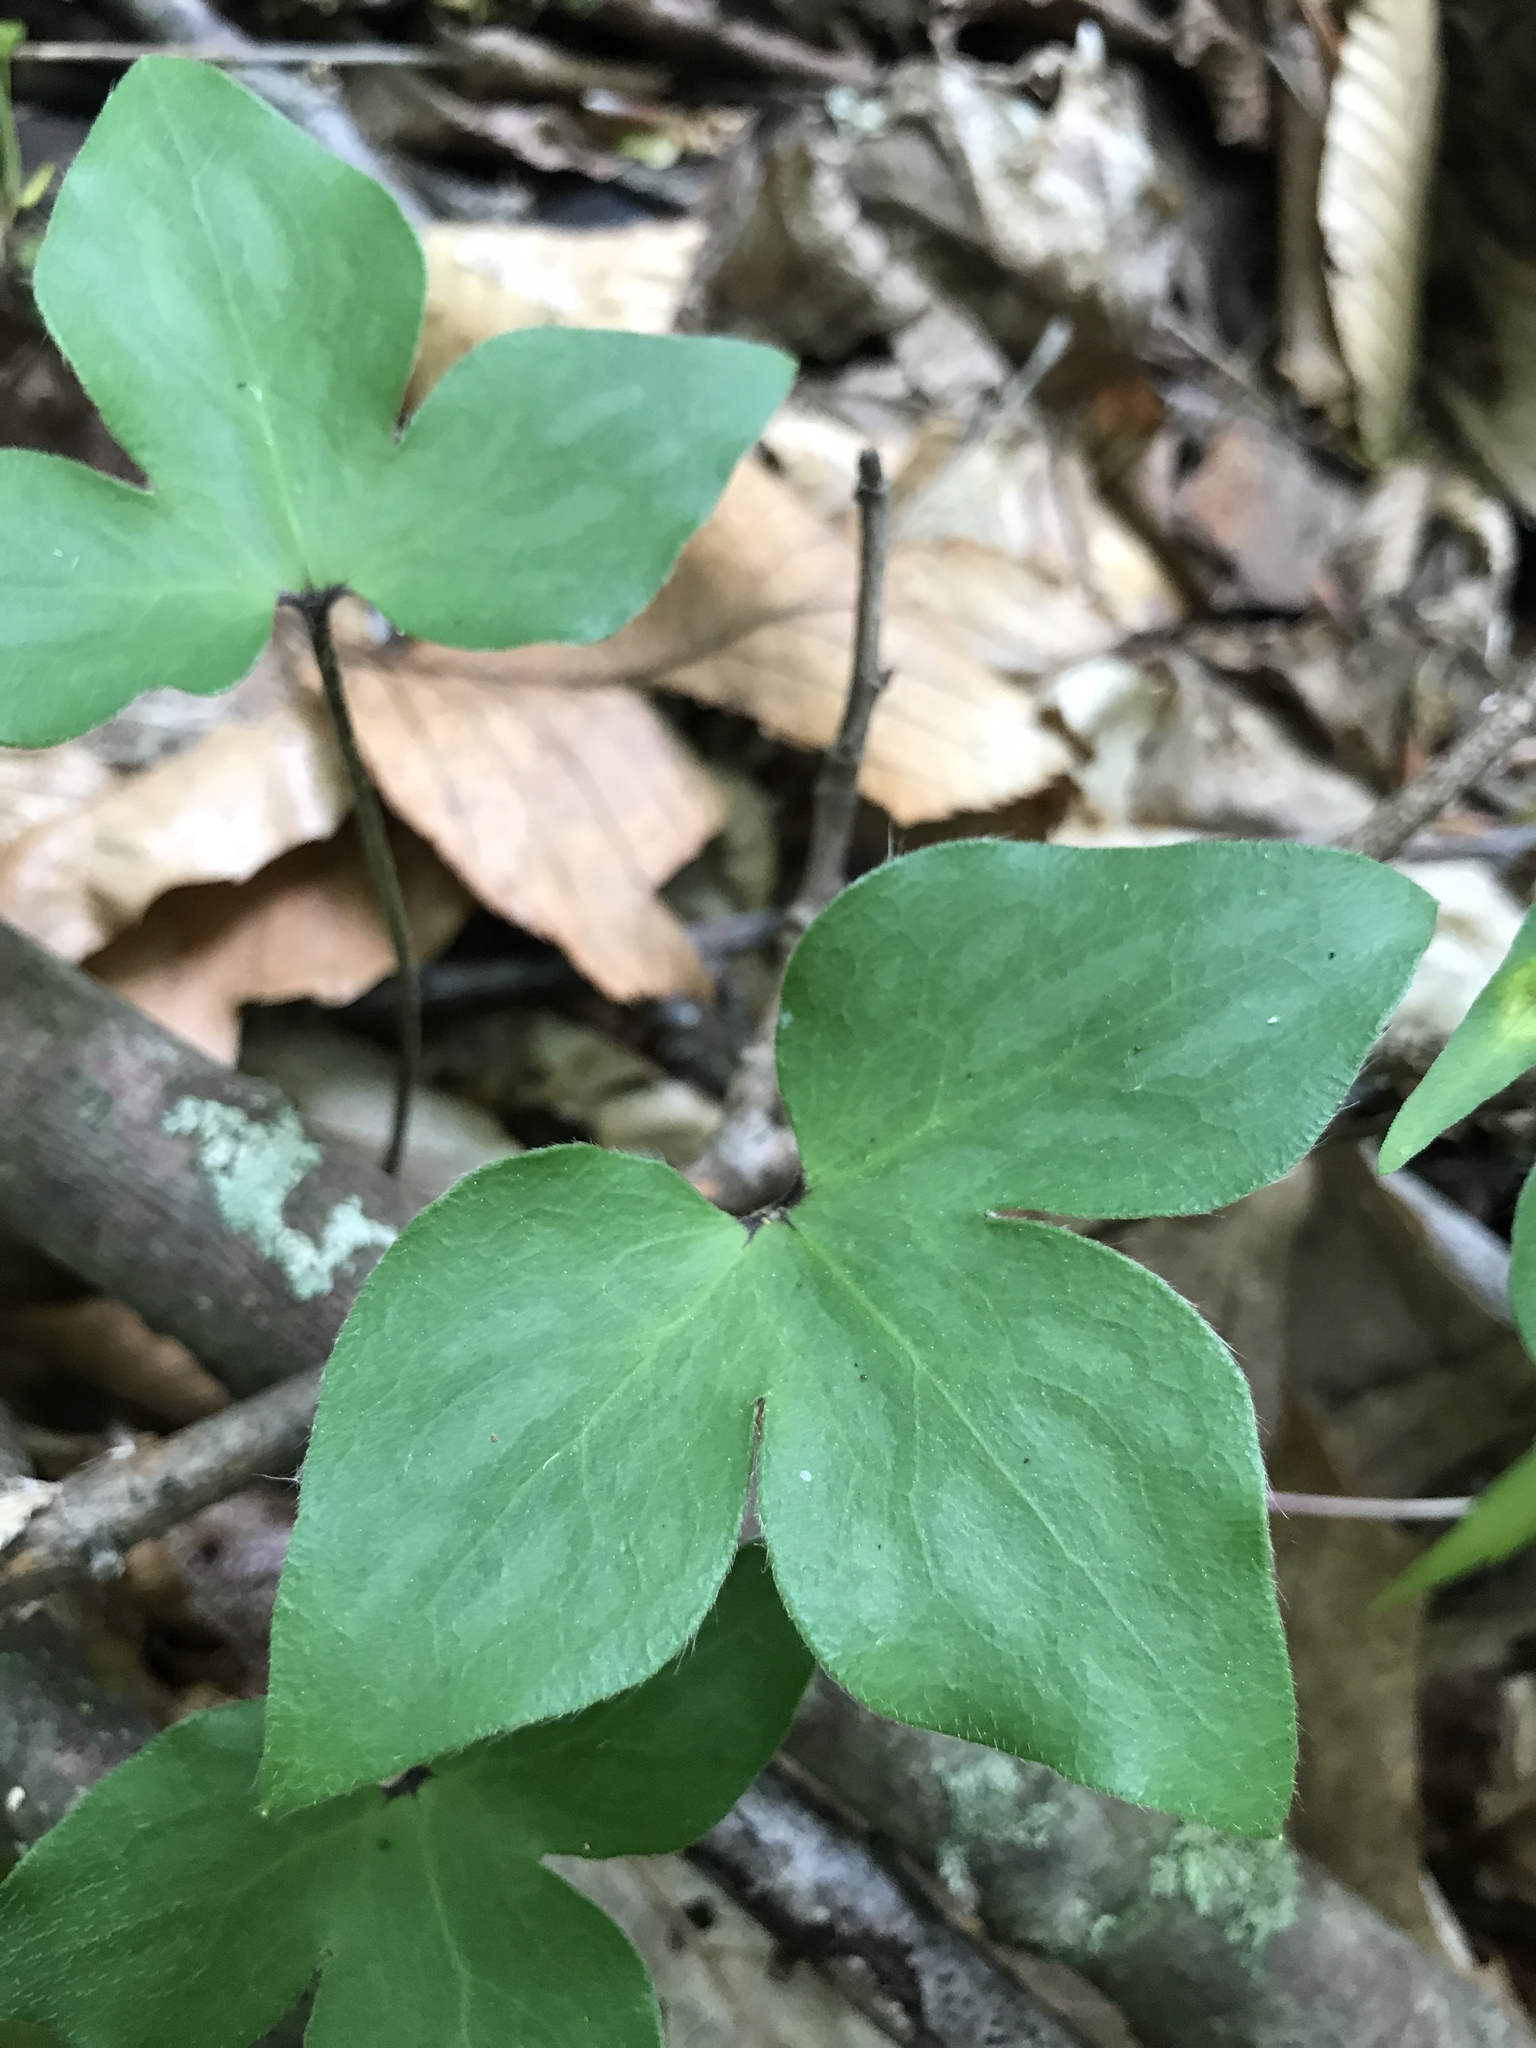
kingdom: Plantae
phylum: Tracheophyta
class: Magnoliopsida
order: Ranunculales
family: Ranunculaceae
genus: Hepatica
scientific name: Hepatica acutiloba
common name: Sharp-lobed hepatica
